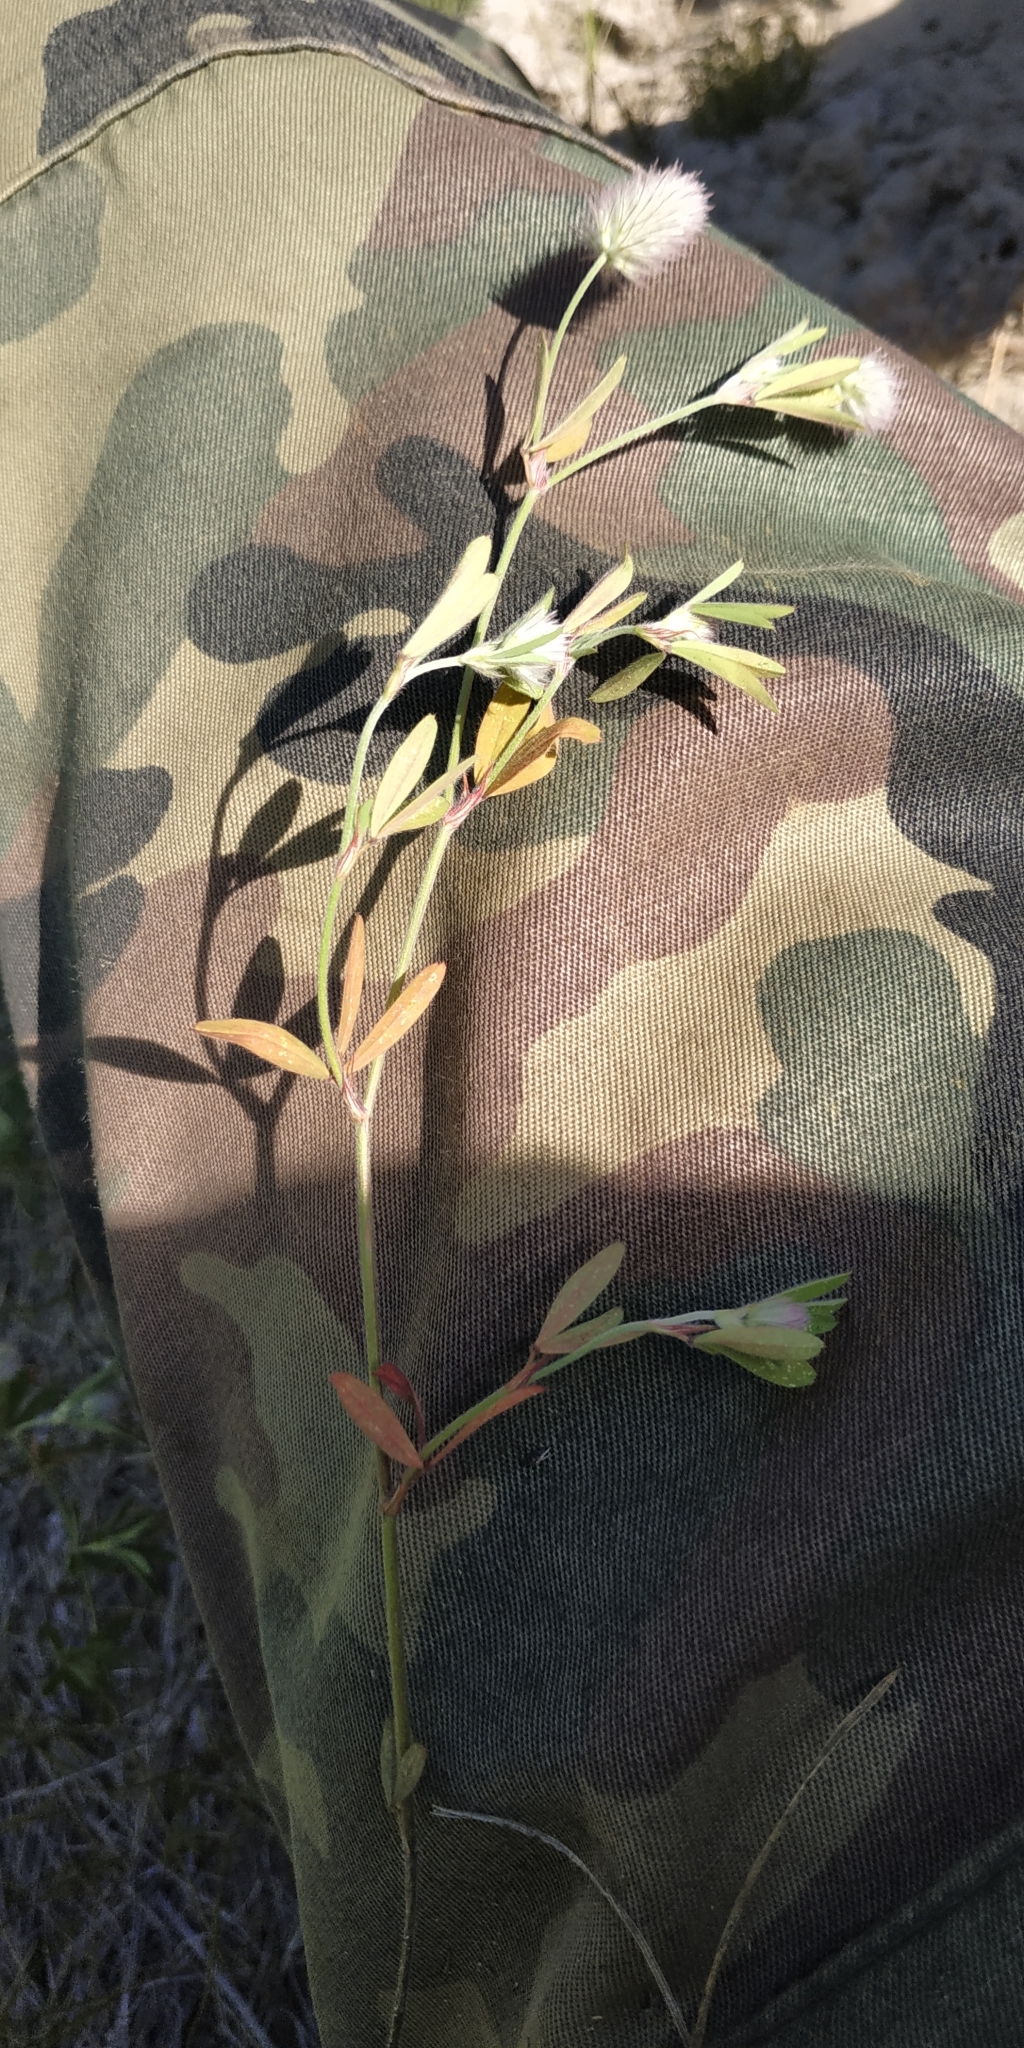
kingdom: Plantae
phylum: Tracheophyta
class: Magnoliopsida
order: Fabales
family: Fabaceae
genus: Trifolium
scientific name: Trifolium arvense
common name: Hare's-foot clover
